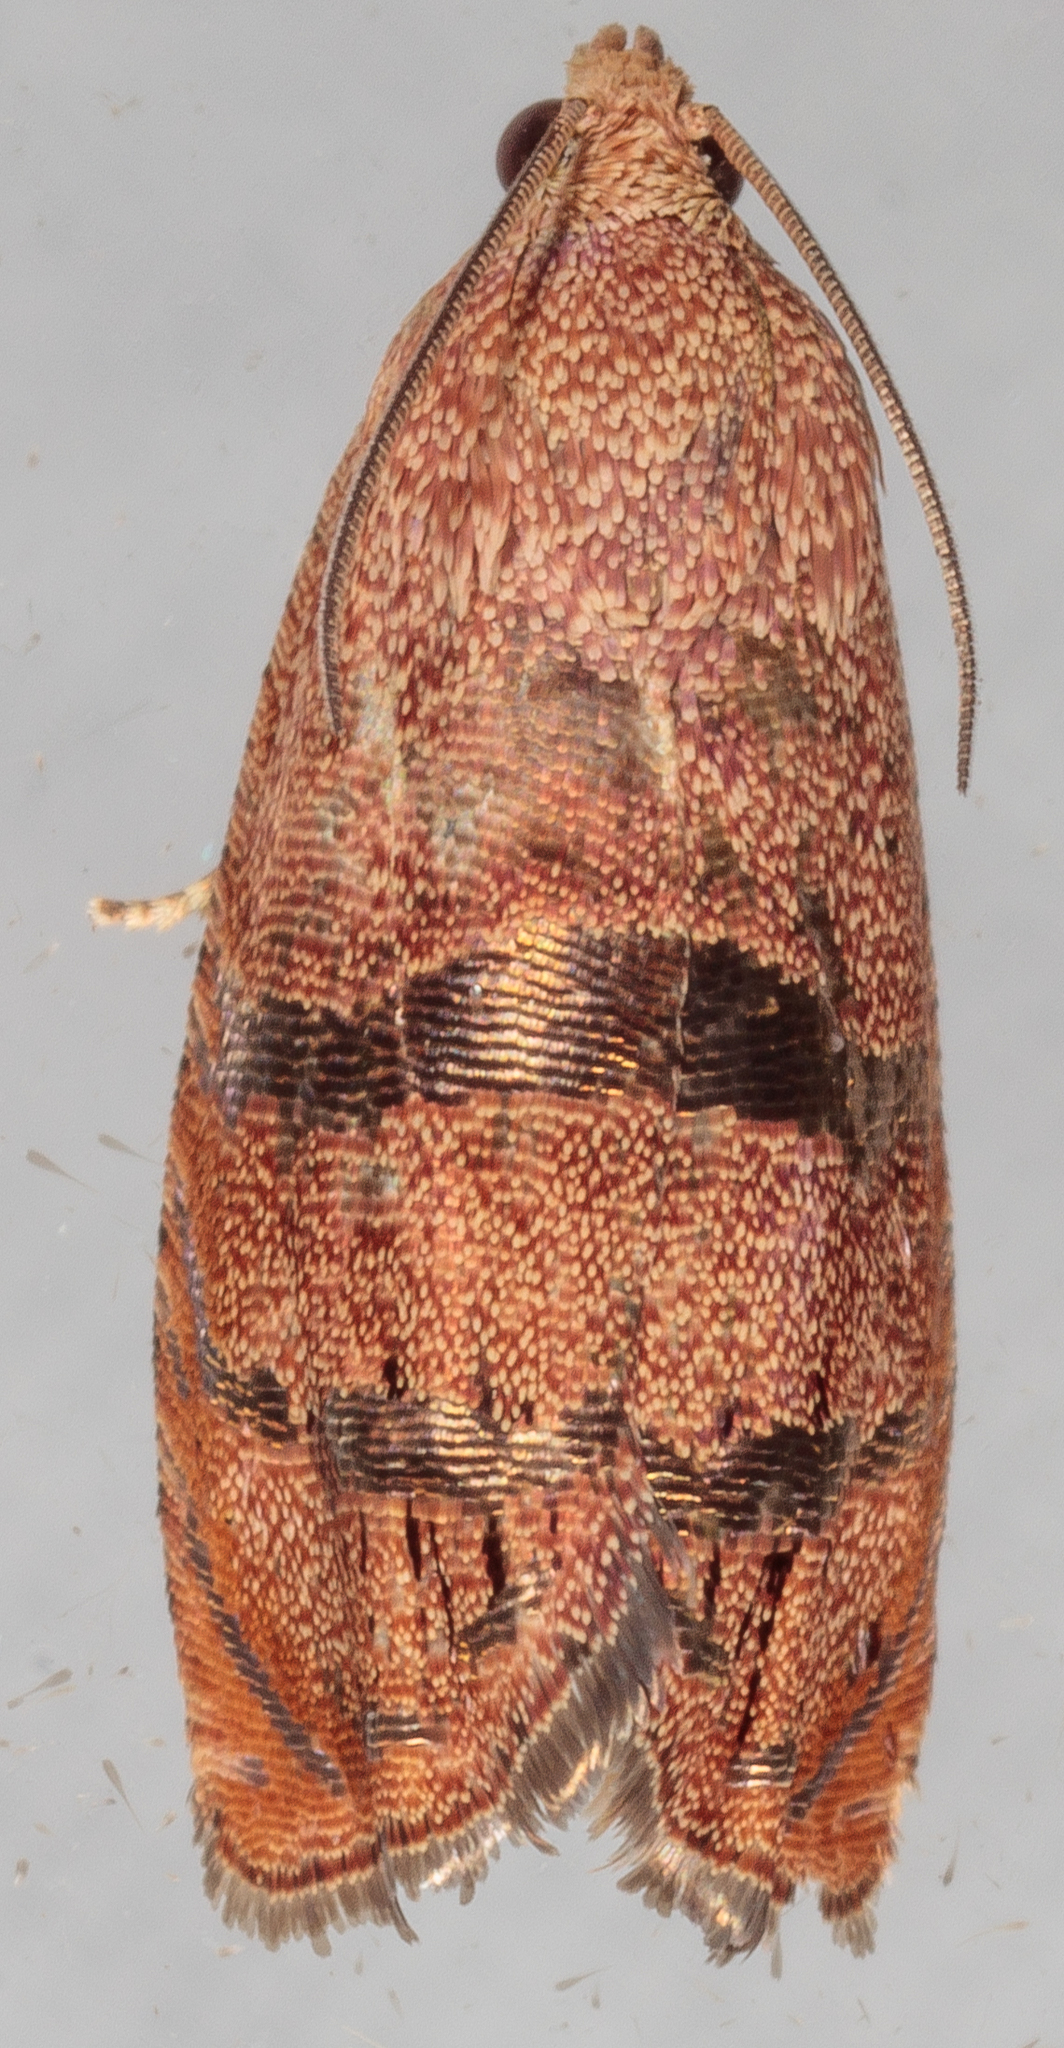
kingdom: Animalia
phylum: Arthropoda
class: Insecta
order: Lepidoptera
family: Tortricidae
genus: Cydia
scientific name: Cydia latiferreana
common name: Filbertworm moth
